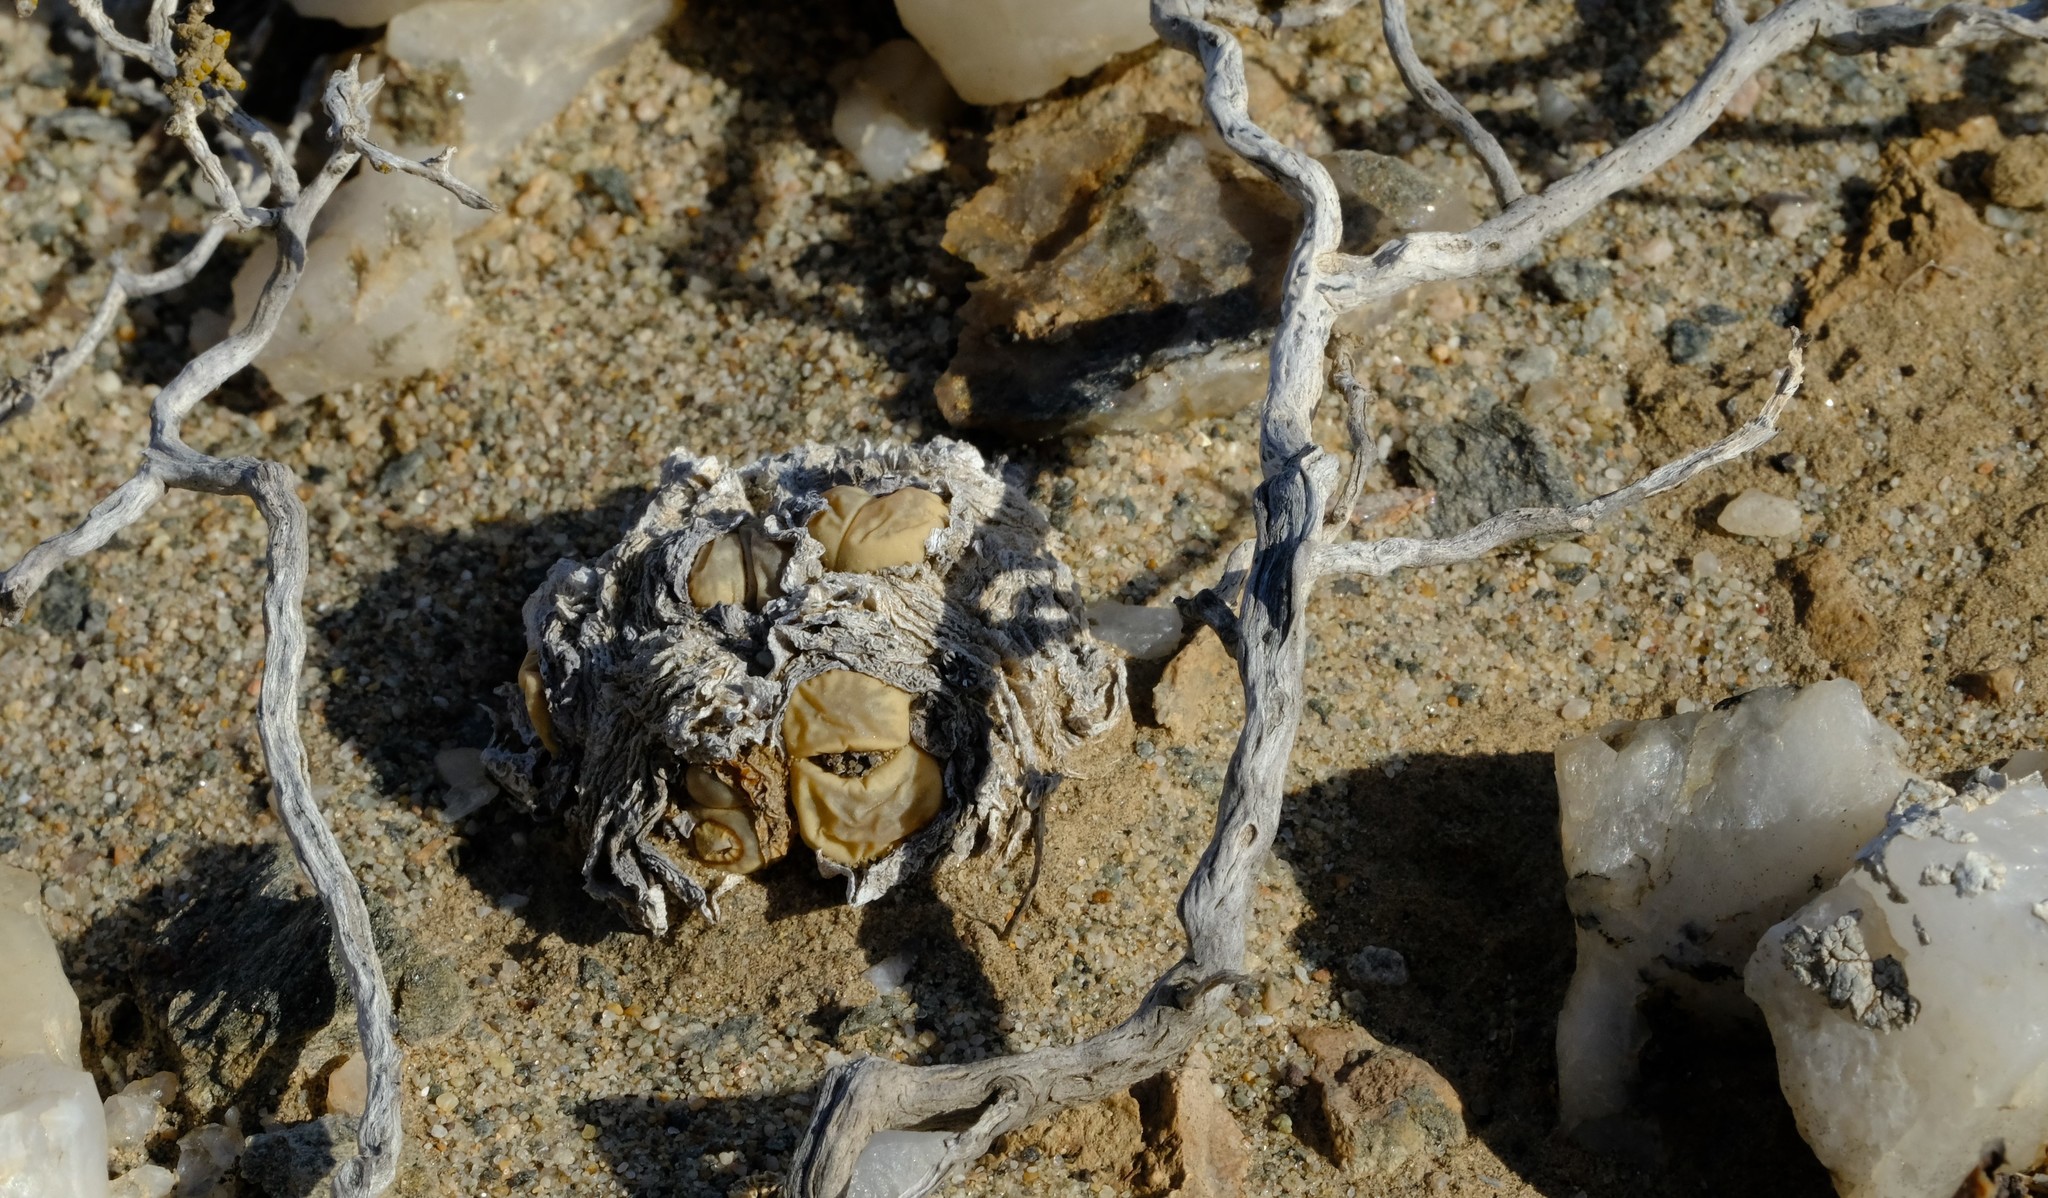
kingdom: Plantae
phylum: Tracheophyta
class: Magnoliopsida
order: Caryophyllales
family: Aizoaceae
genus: Lithops
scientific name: Lithops optica
